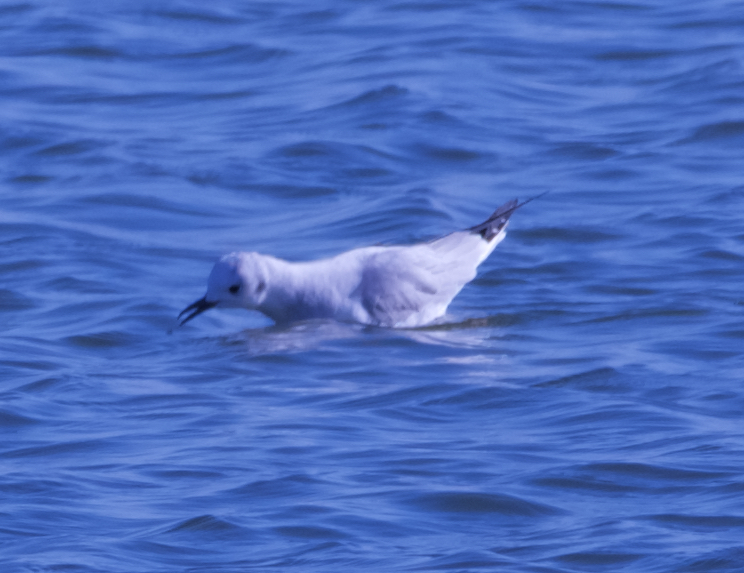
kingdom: Animalia
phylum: Chordata
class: Aves
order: Charadriiformes
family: Laridae
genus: Chroicocephalus
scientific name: Chroicocephalus philadelphia
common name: Bonaparte's gull
